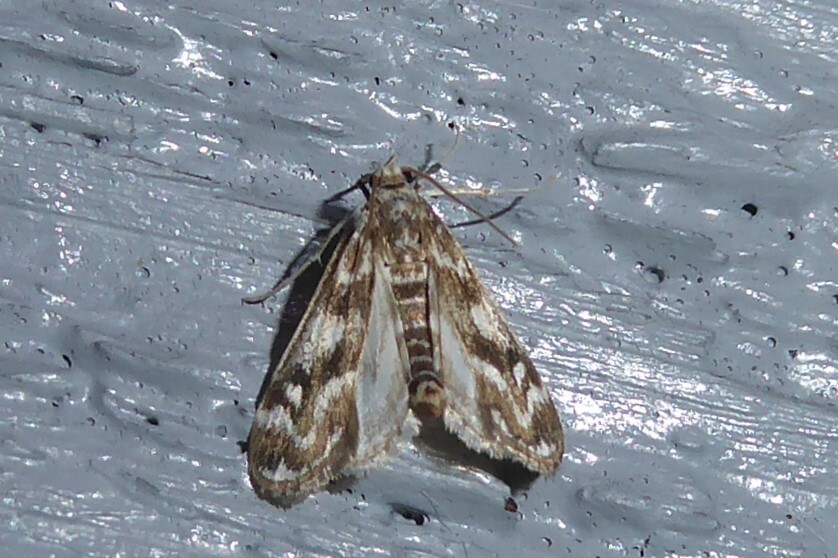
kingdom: Animalia
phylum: Arthropoda
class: Insecta
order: Lepidoptera
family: Crambidae
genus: Hygraula
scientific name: Hygraula nitens
